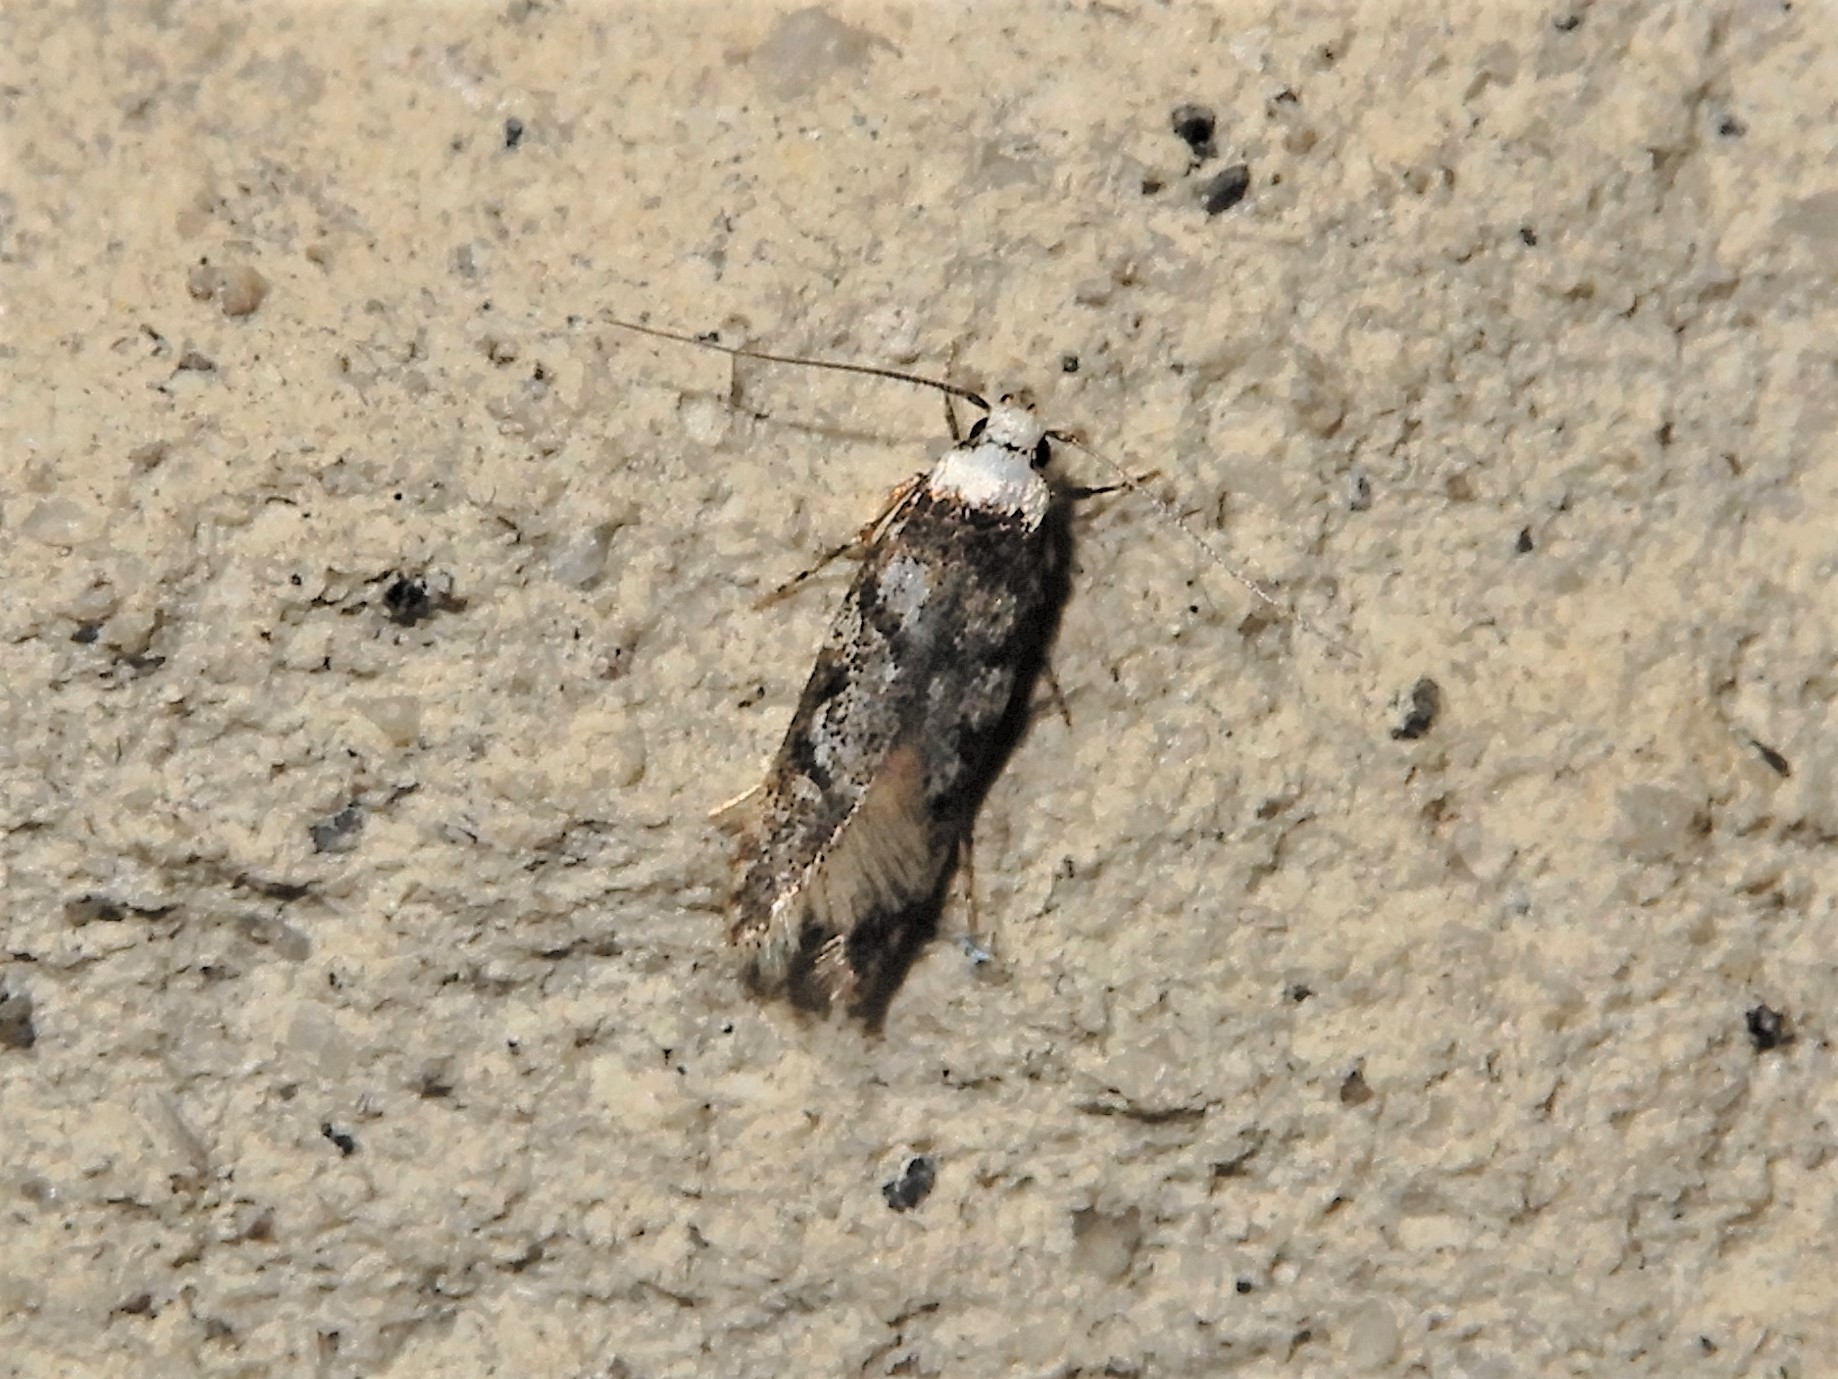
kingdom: Animalia
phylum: Arthropoda
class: Insecta
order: Lepidoptera
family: Oecophoridae
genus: Endrosis
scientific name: Endrosis sarcitrella
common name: White-shouldered house moth
